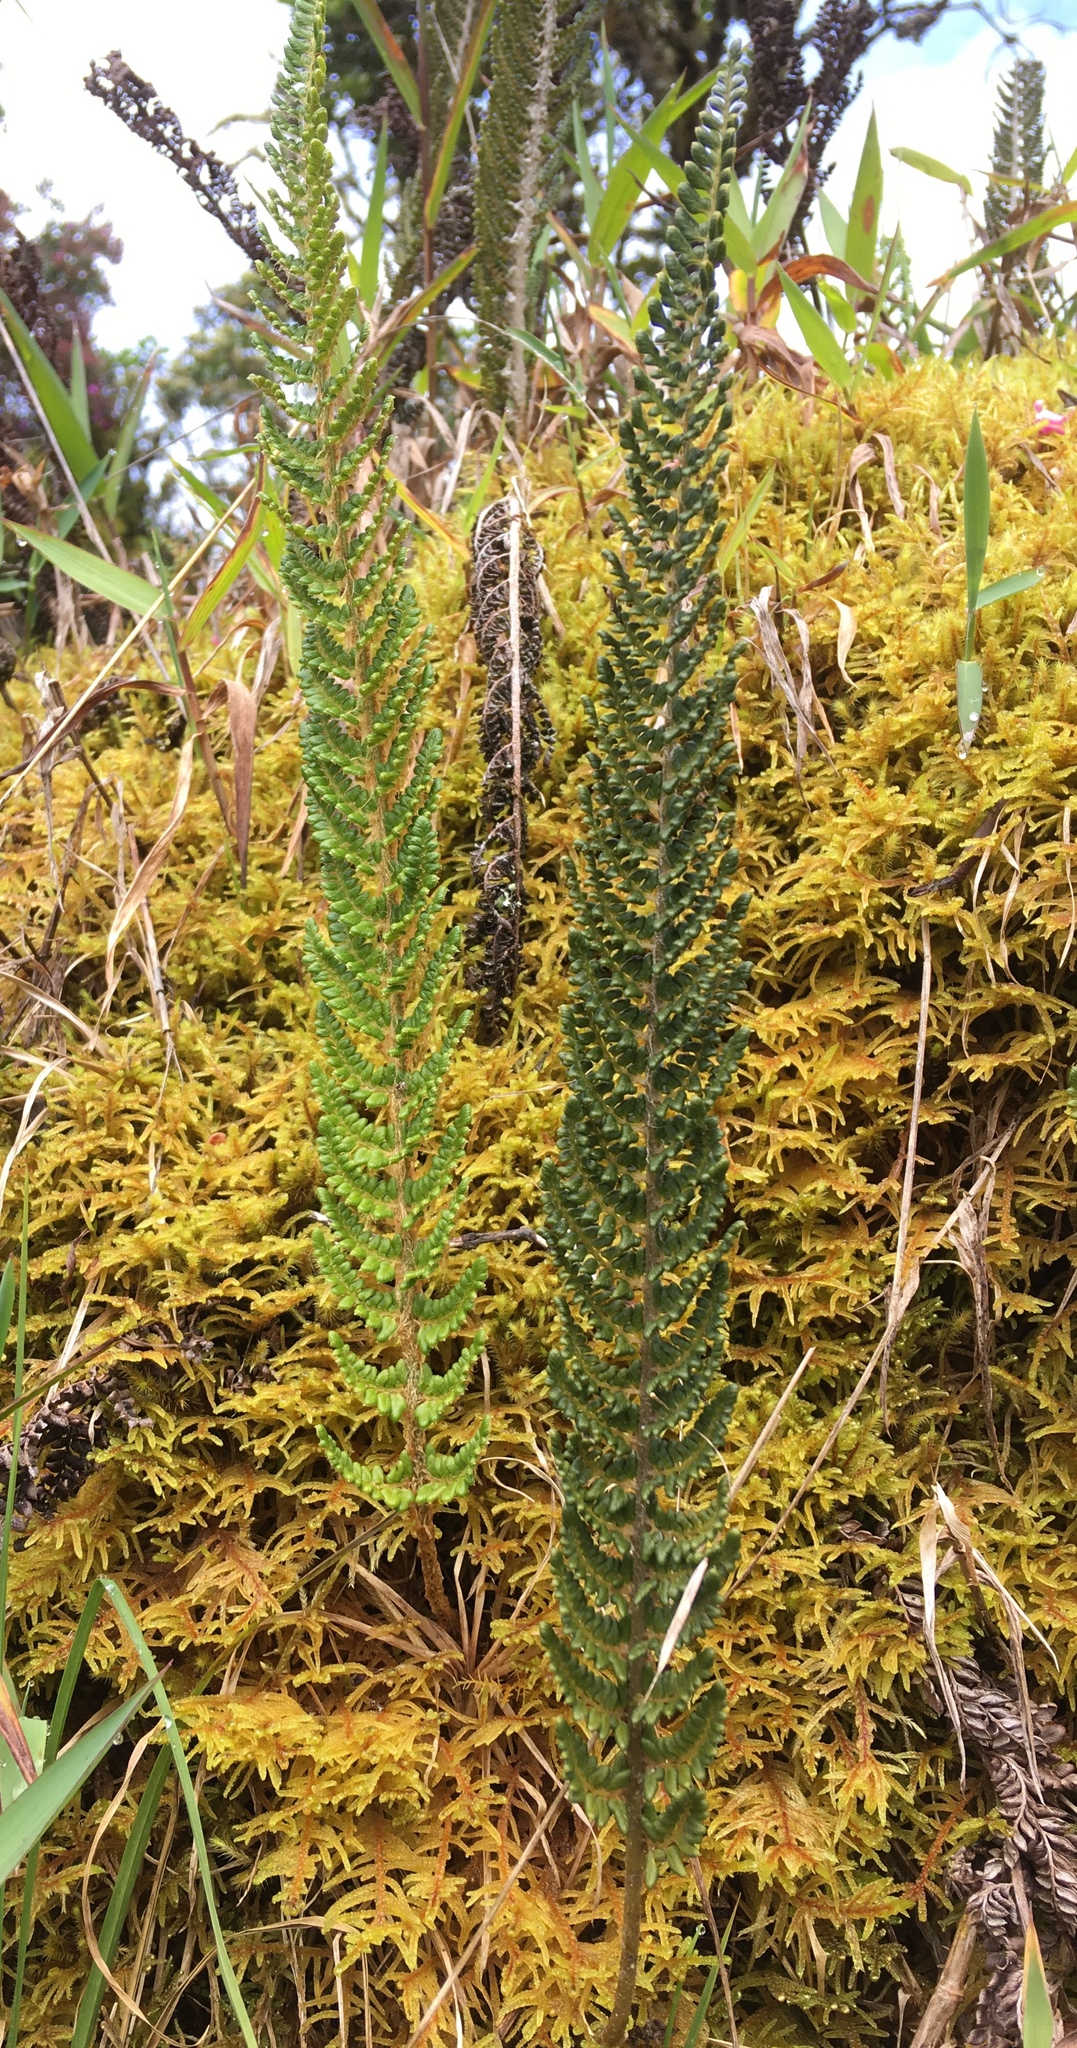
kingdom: Plantae
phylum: Tracheophyta
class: Polypodiopsida
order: Polypodiales
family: Dryopteridaceae
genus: Polystichum
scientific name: Polystichum orbiculatum
